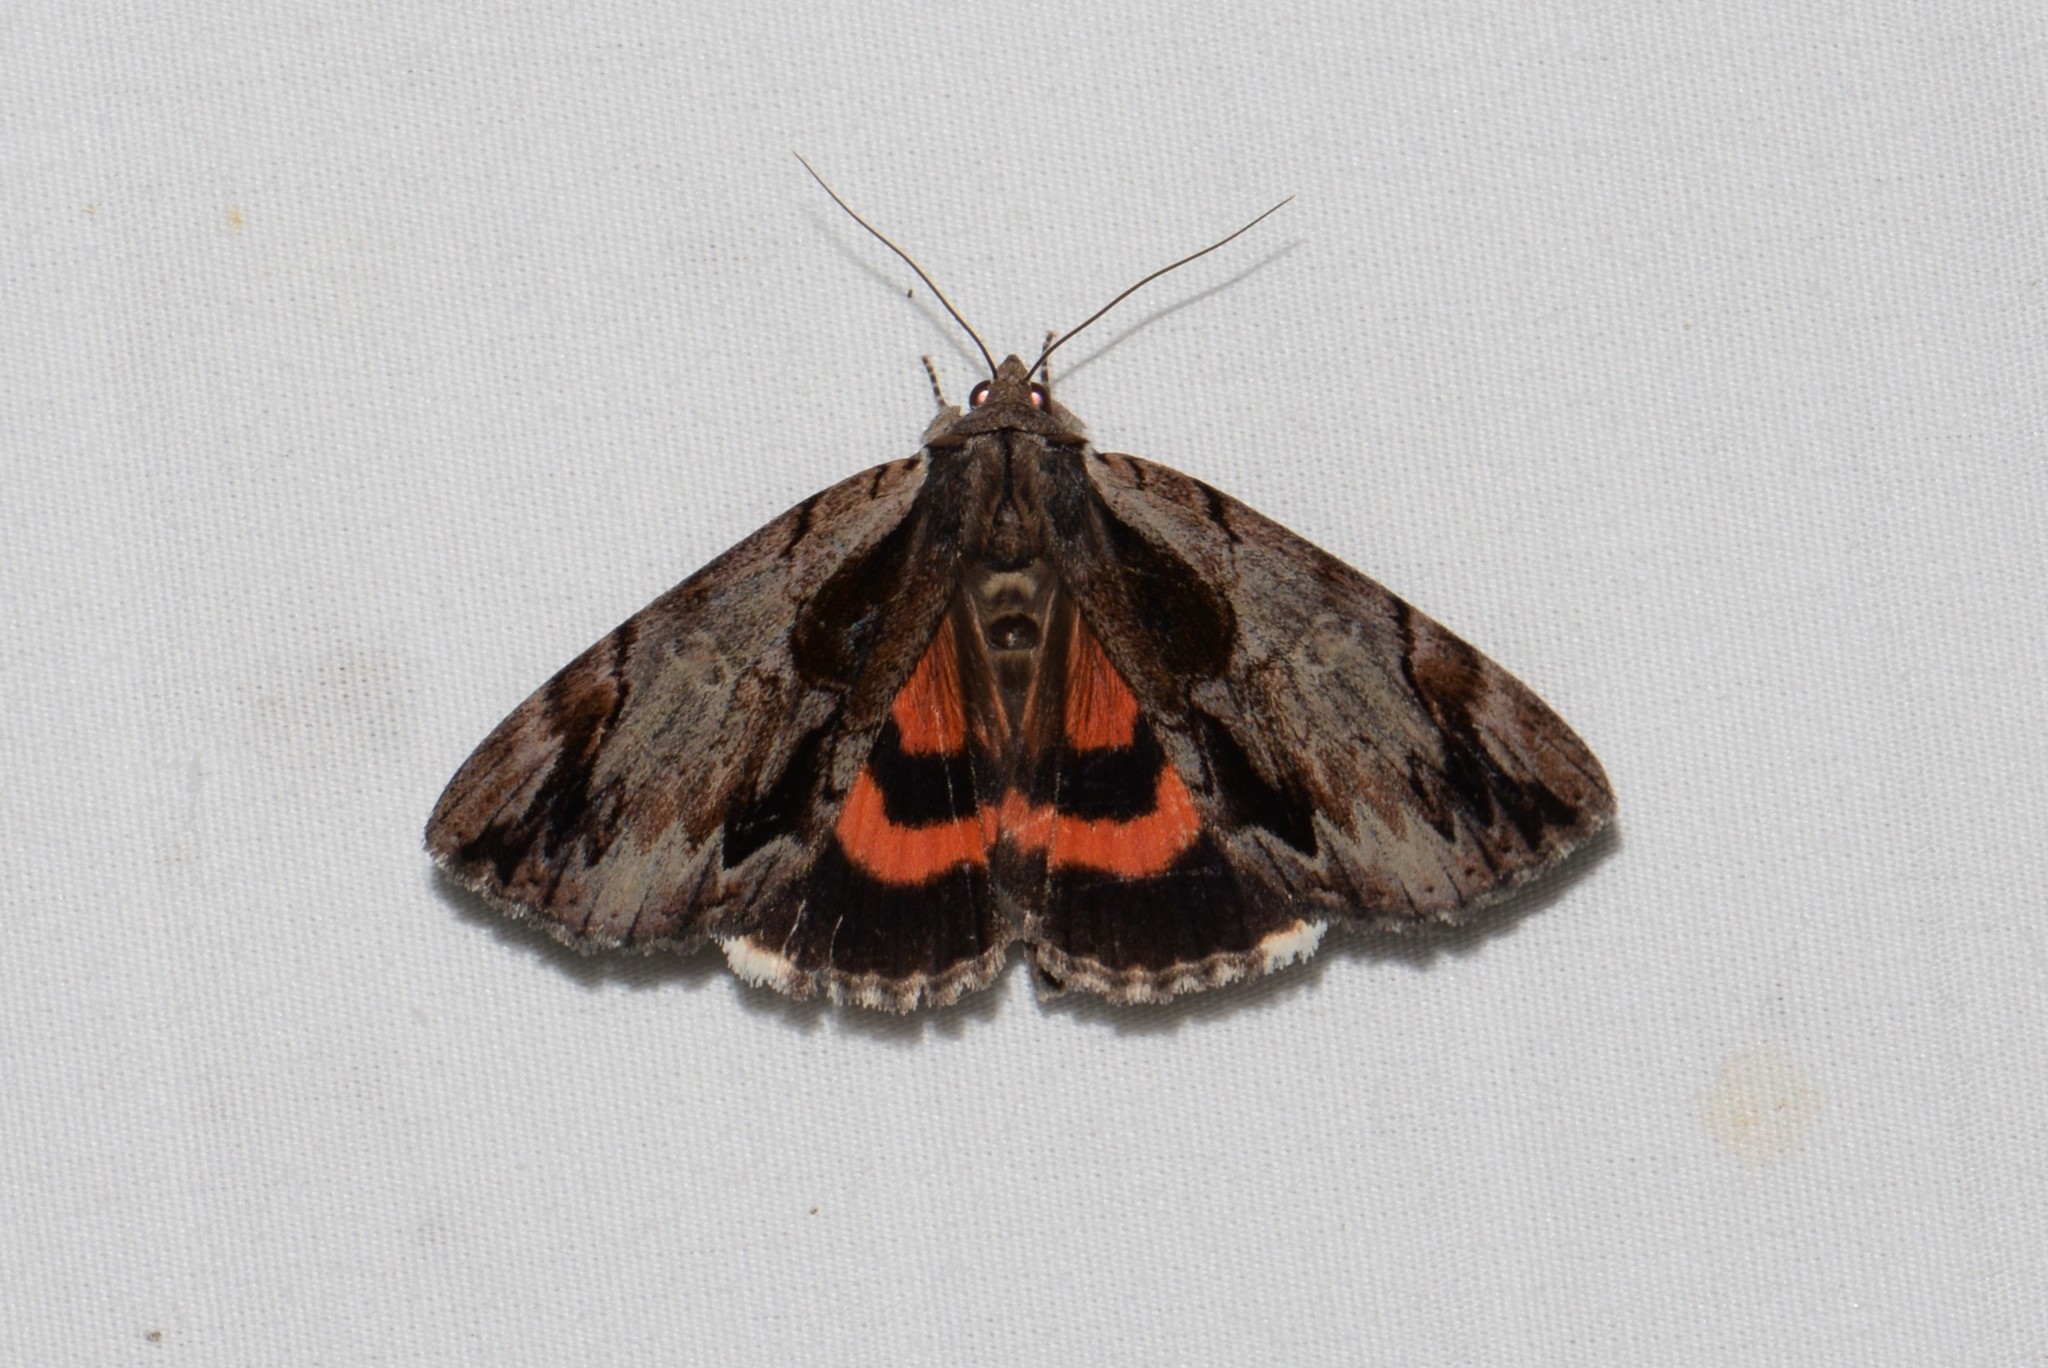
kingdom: Animalia
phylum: Arthropoda
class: Insecta
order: Lepidoptera
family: Erebidae
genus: Catocala
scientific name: Catocala ultronia
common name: Ultronia underwing
